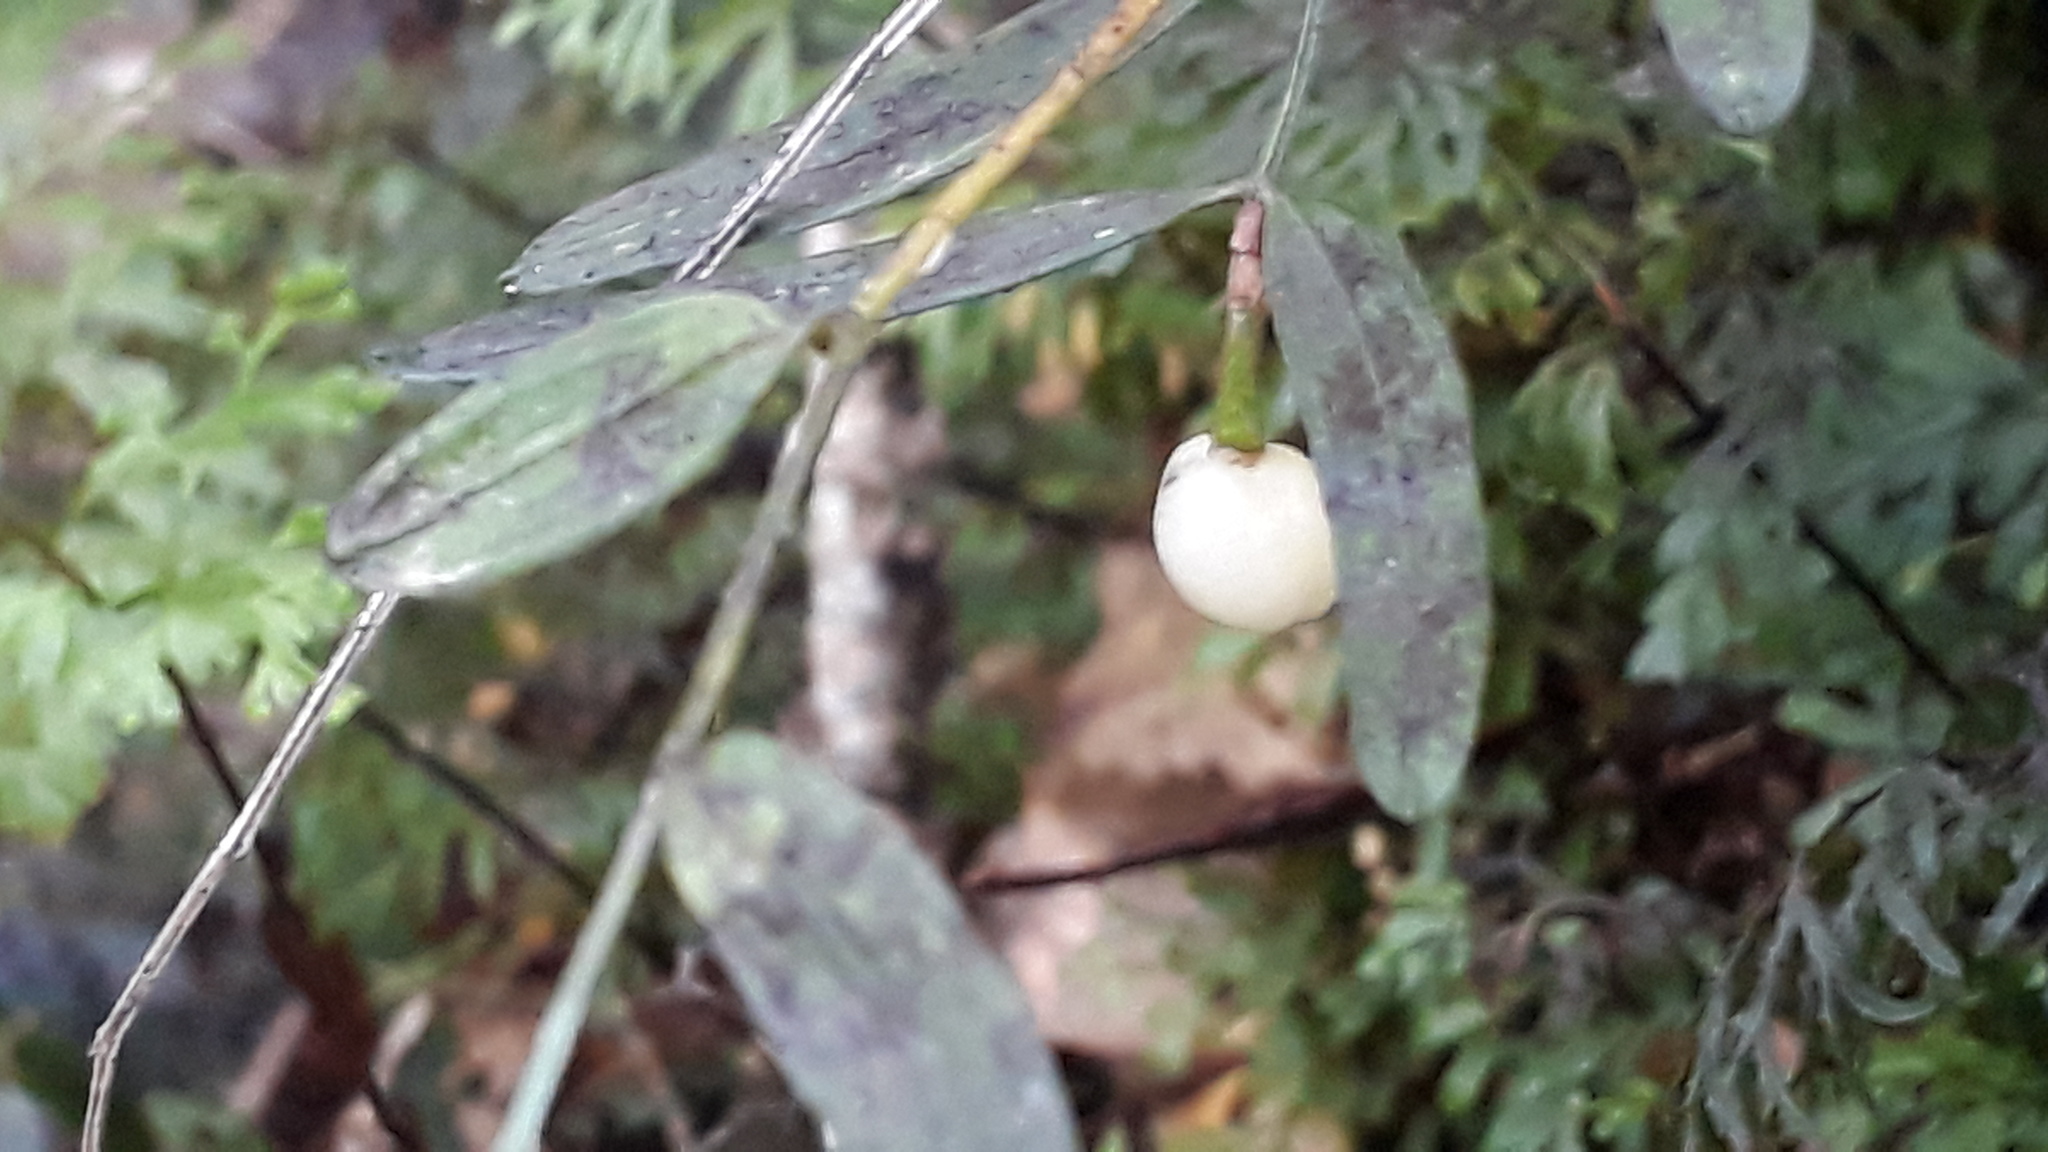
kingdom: Plantae
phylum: Tracheophyta
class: Liliopsida
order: Liliales
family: Alstroemeriaceae
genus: Luzuriaga
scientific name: Luzuriaga parviflora
